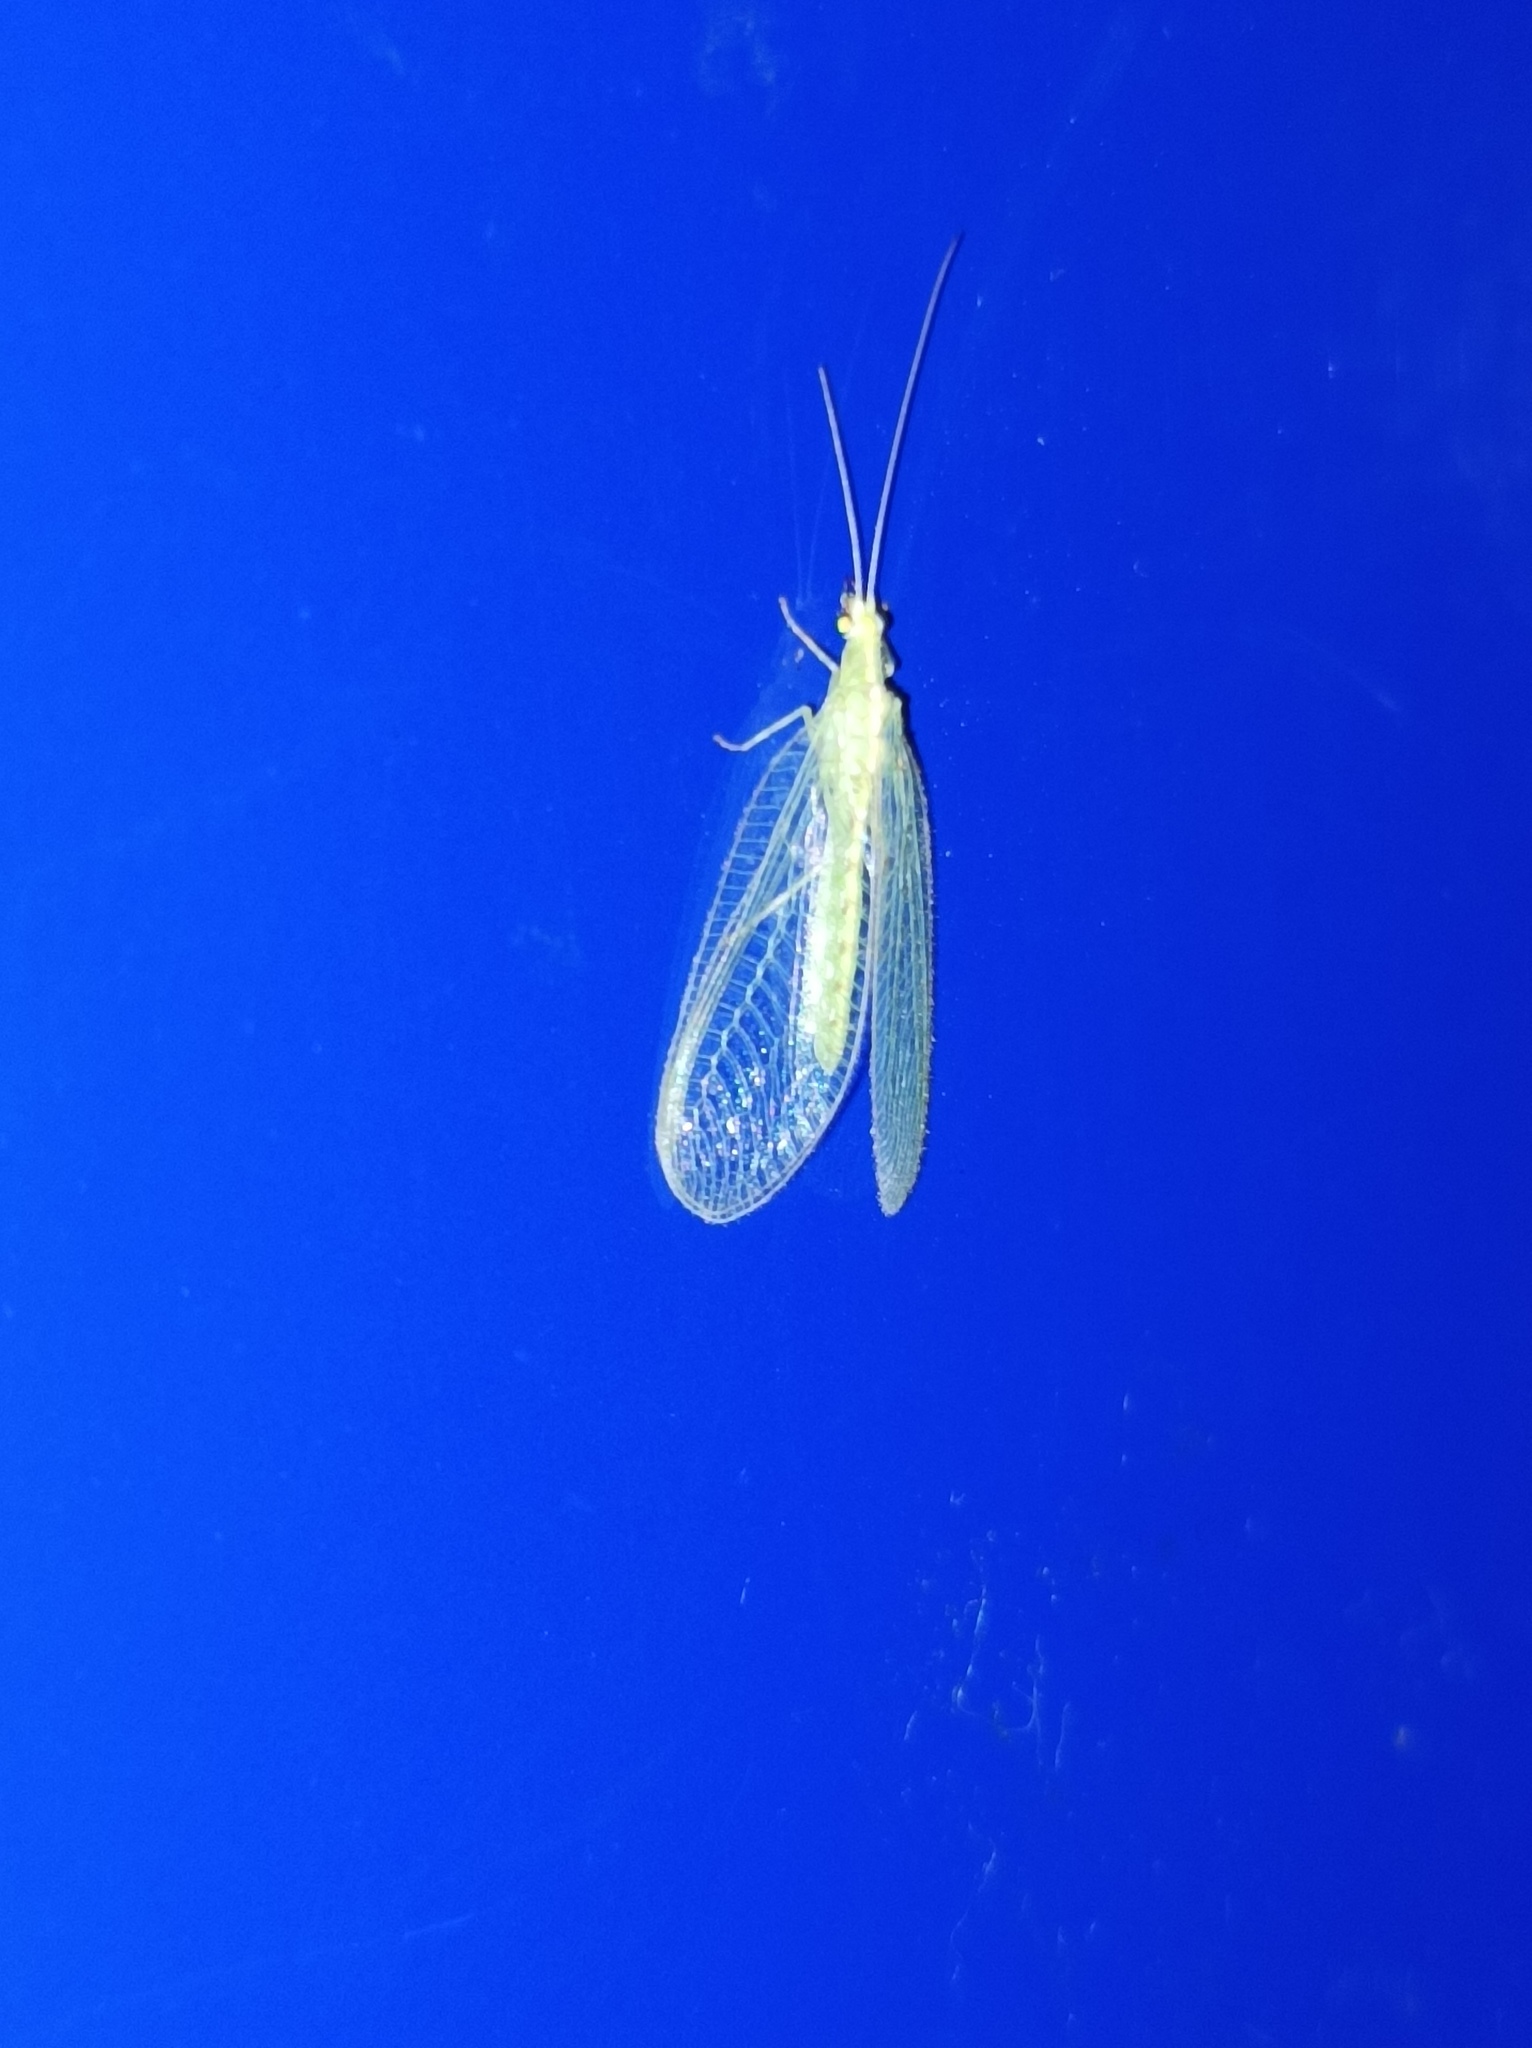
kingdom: Animalia
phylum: Arthropoda
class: Insecta
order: Neuroptera
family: Chrysopidae
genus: Chrysoperla
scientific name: Chrysoperla
